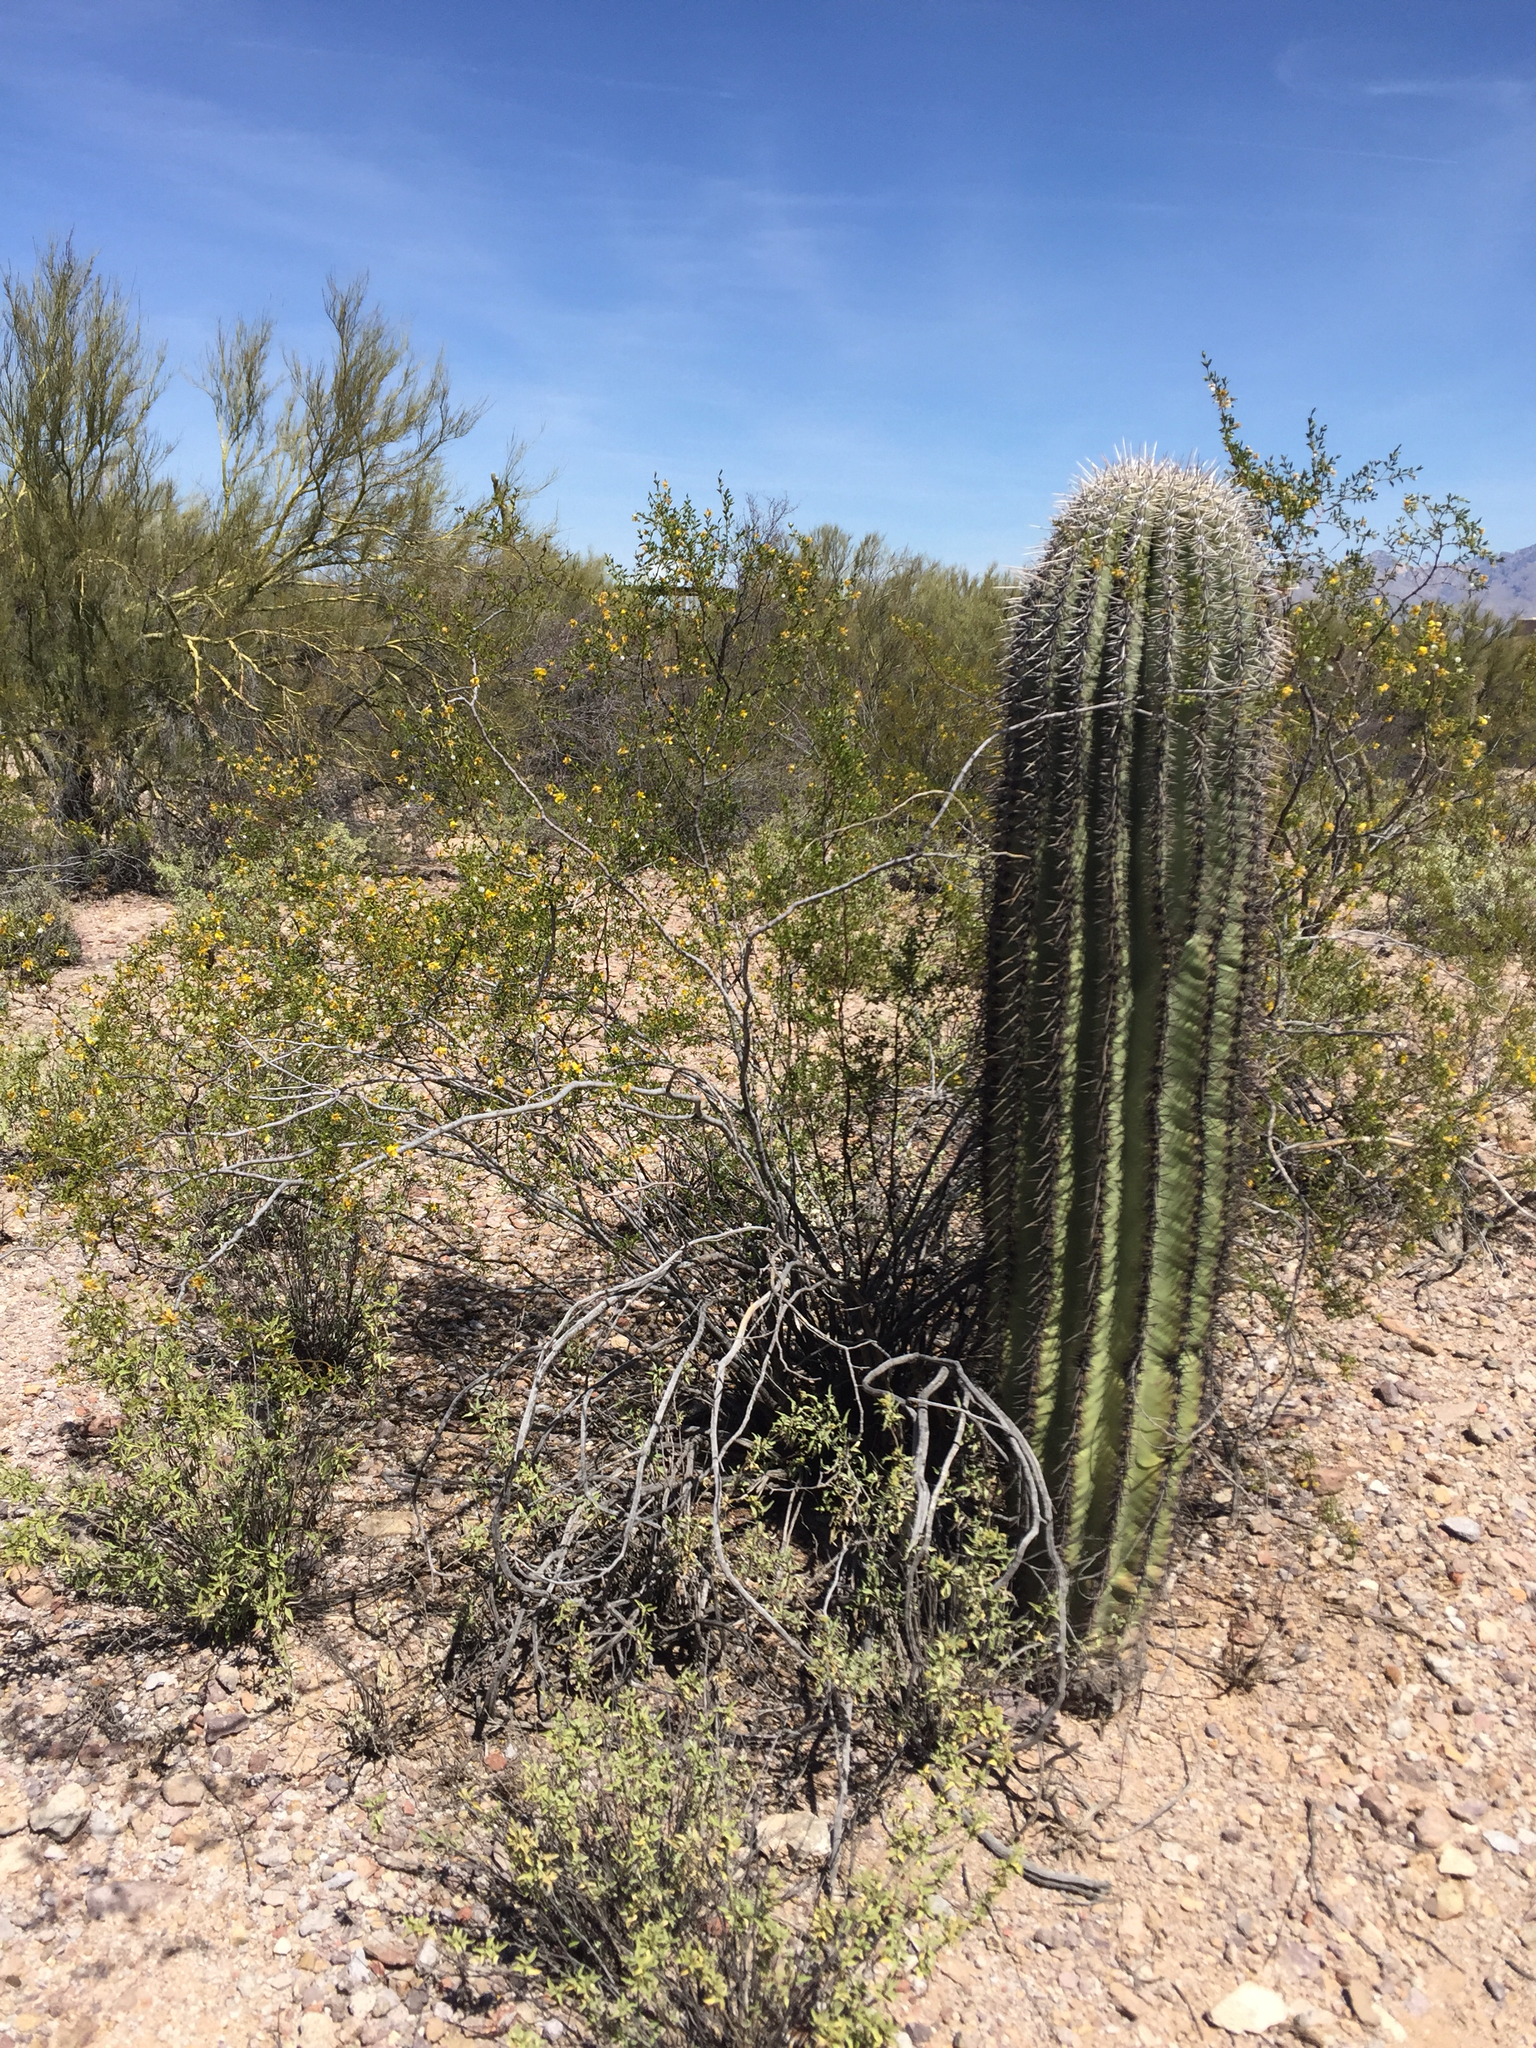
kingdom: Plantae
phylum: Tracheophyta
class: Magnoliopsida
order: Zygophyllales
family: Zygophyllaceae
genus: Larrea
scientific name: Larrea tridentata
